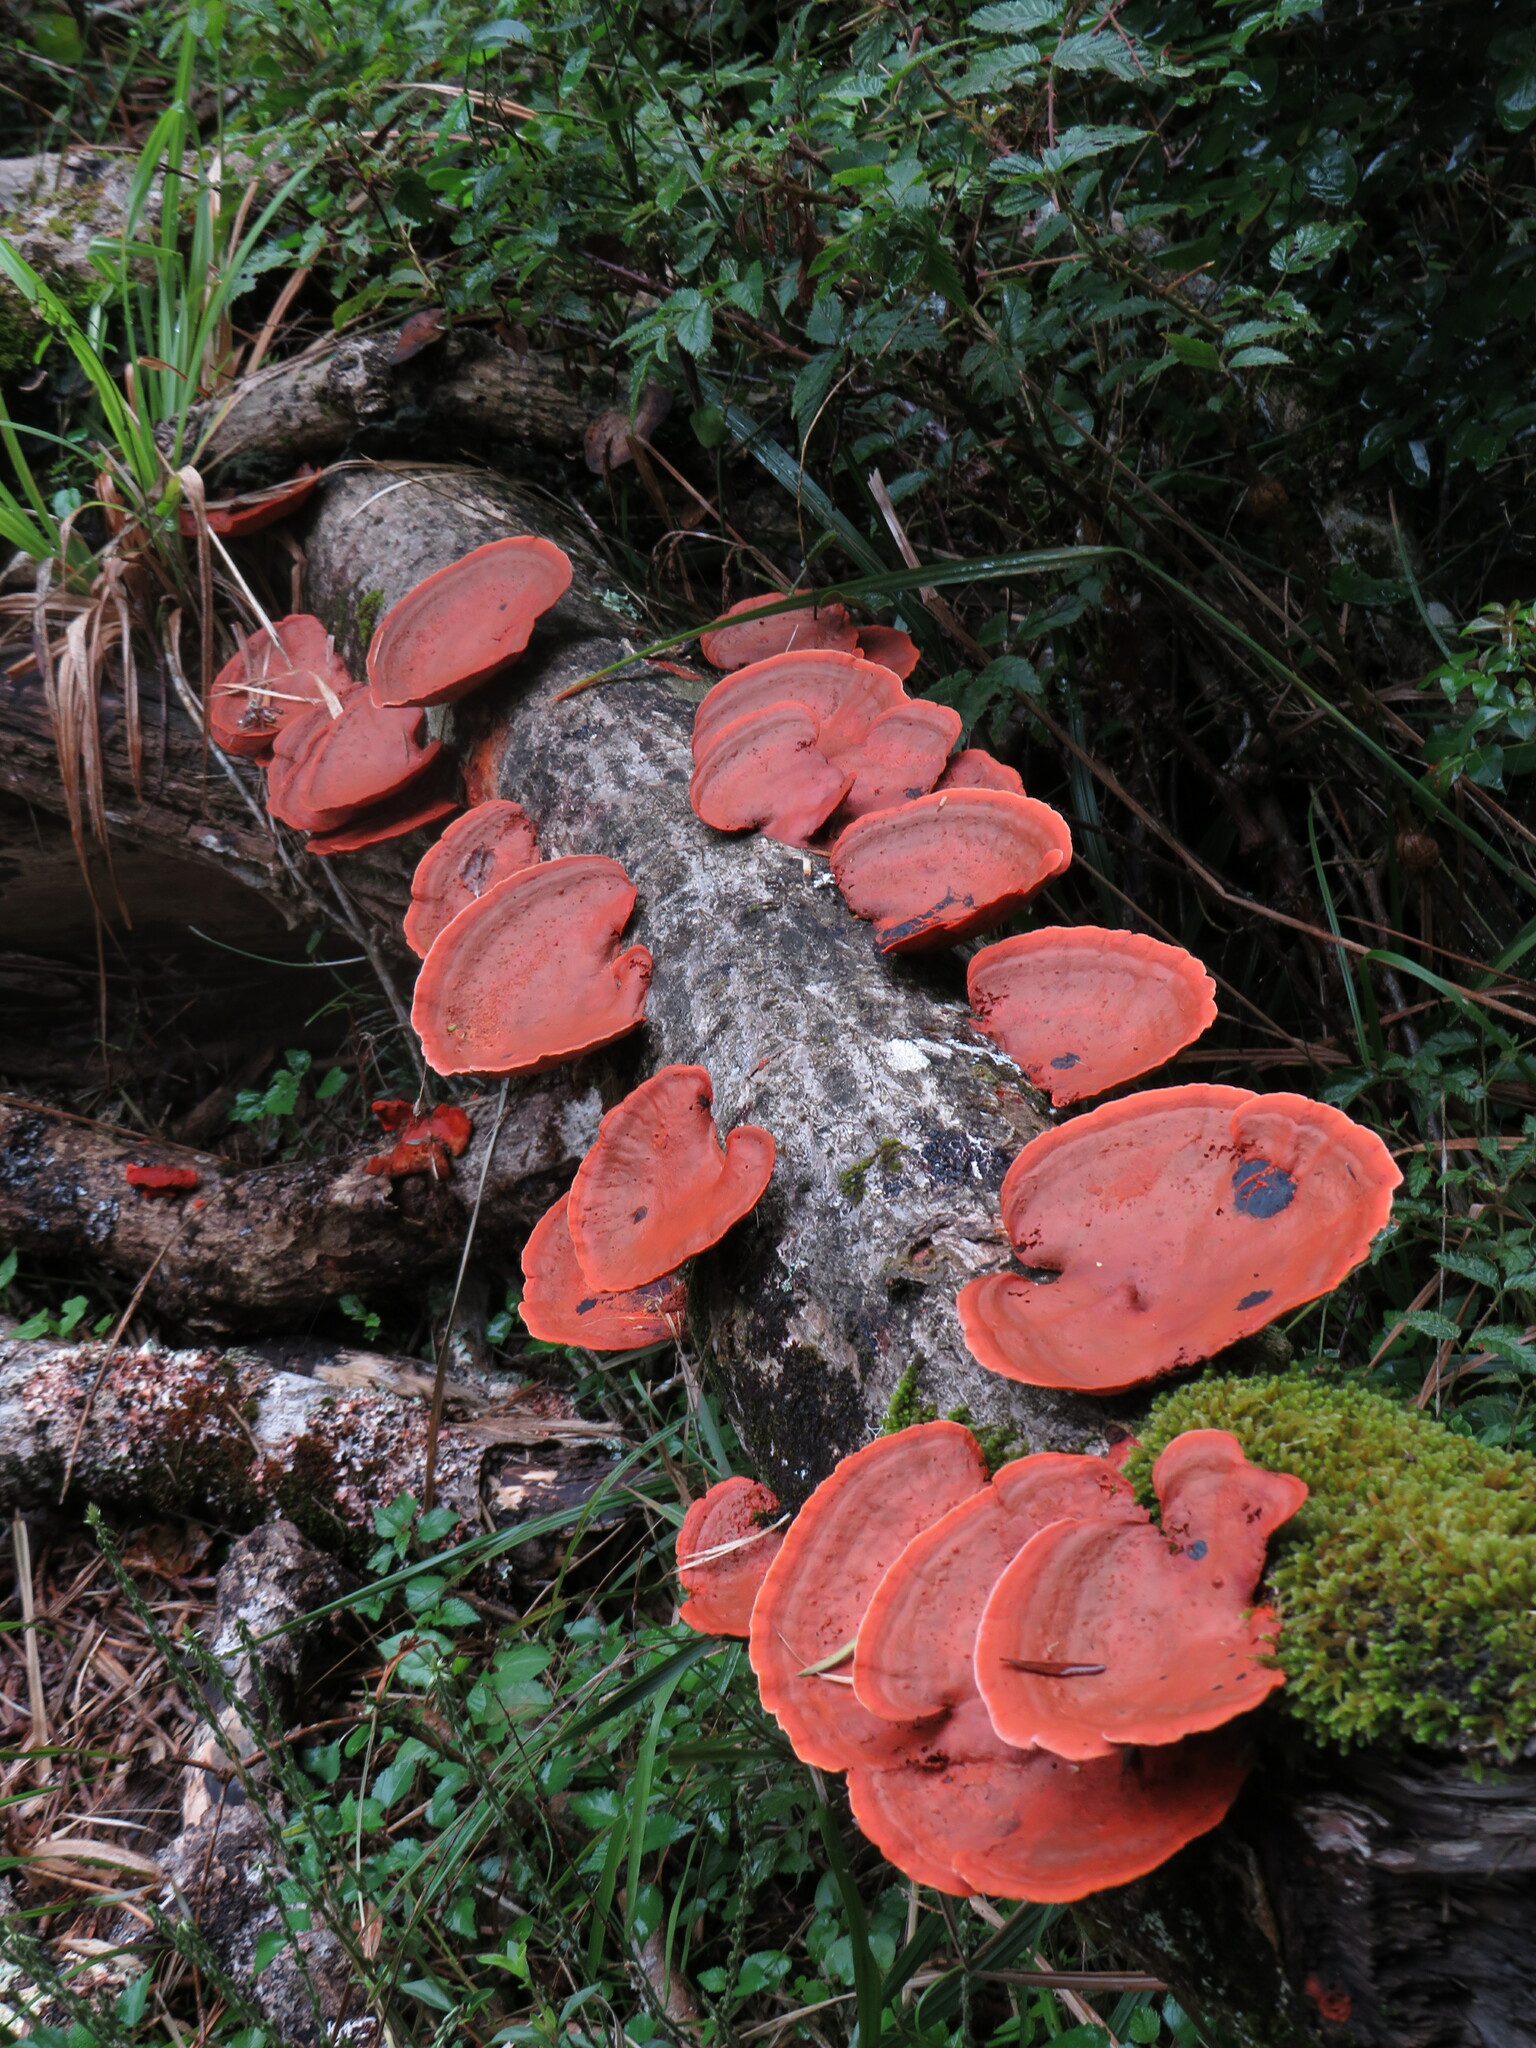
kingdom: Fungi
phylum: Basidiomycota
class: Agaricomycetes
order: Polyporales
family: Polyporaceae
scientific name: Polyporaceae
